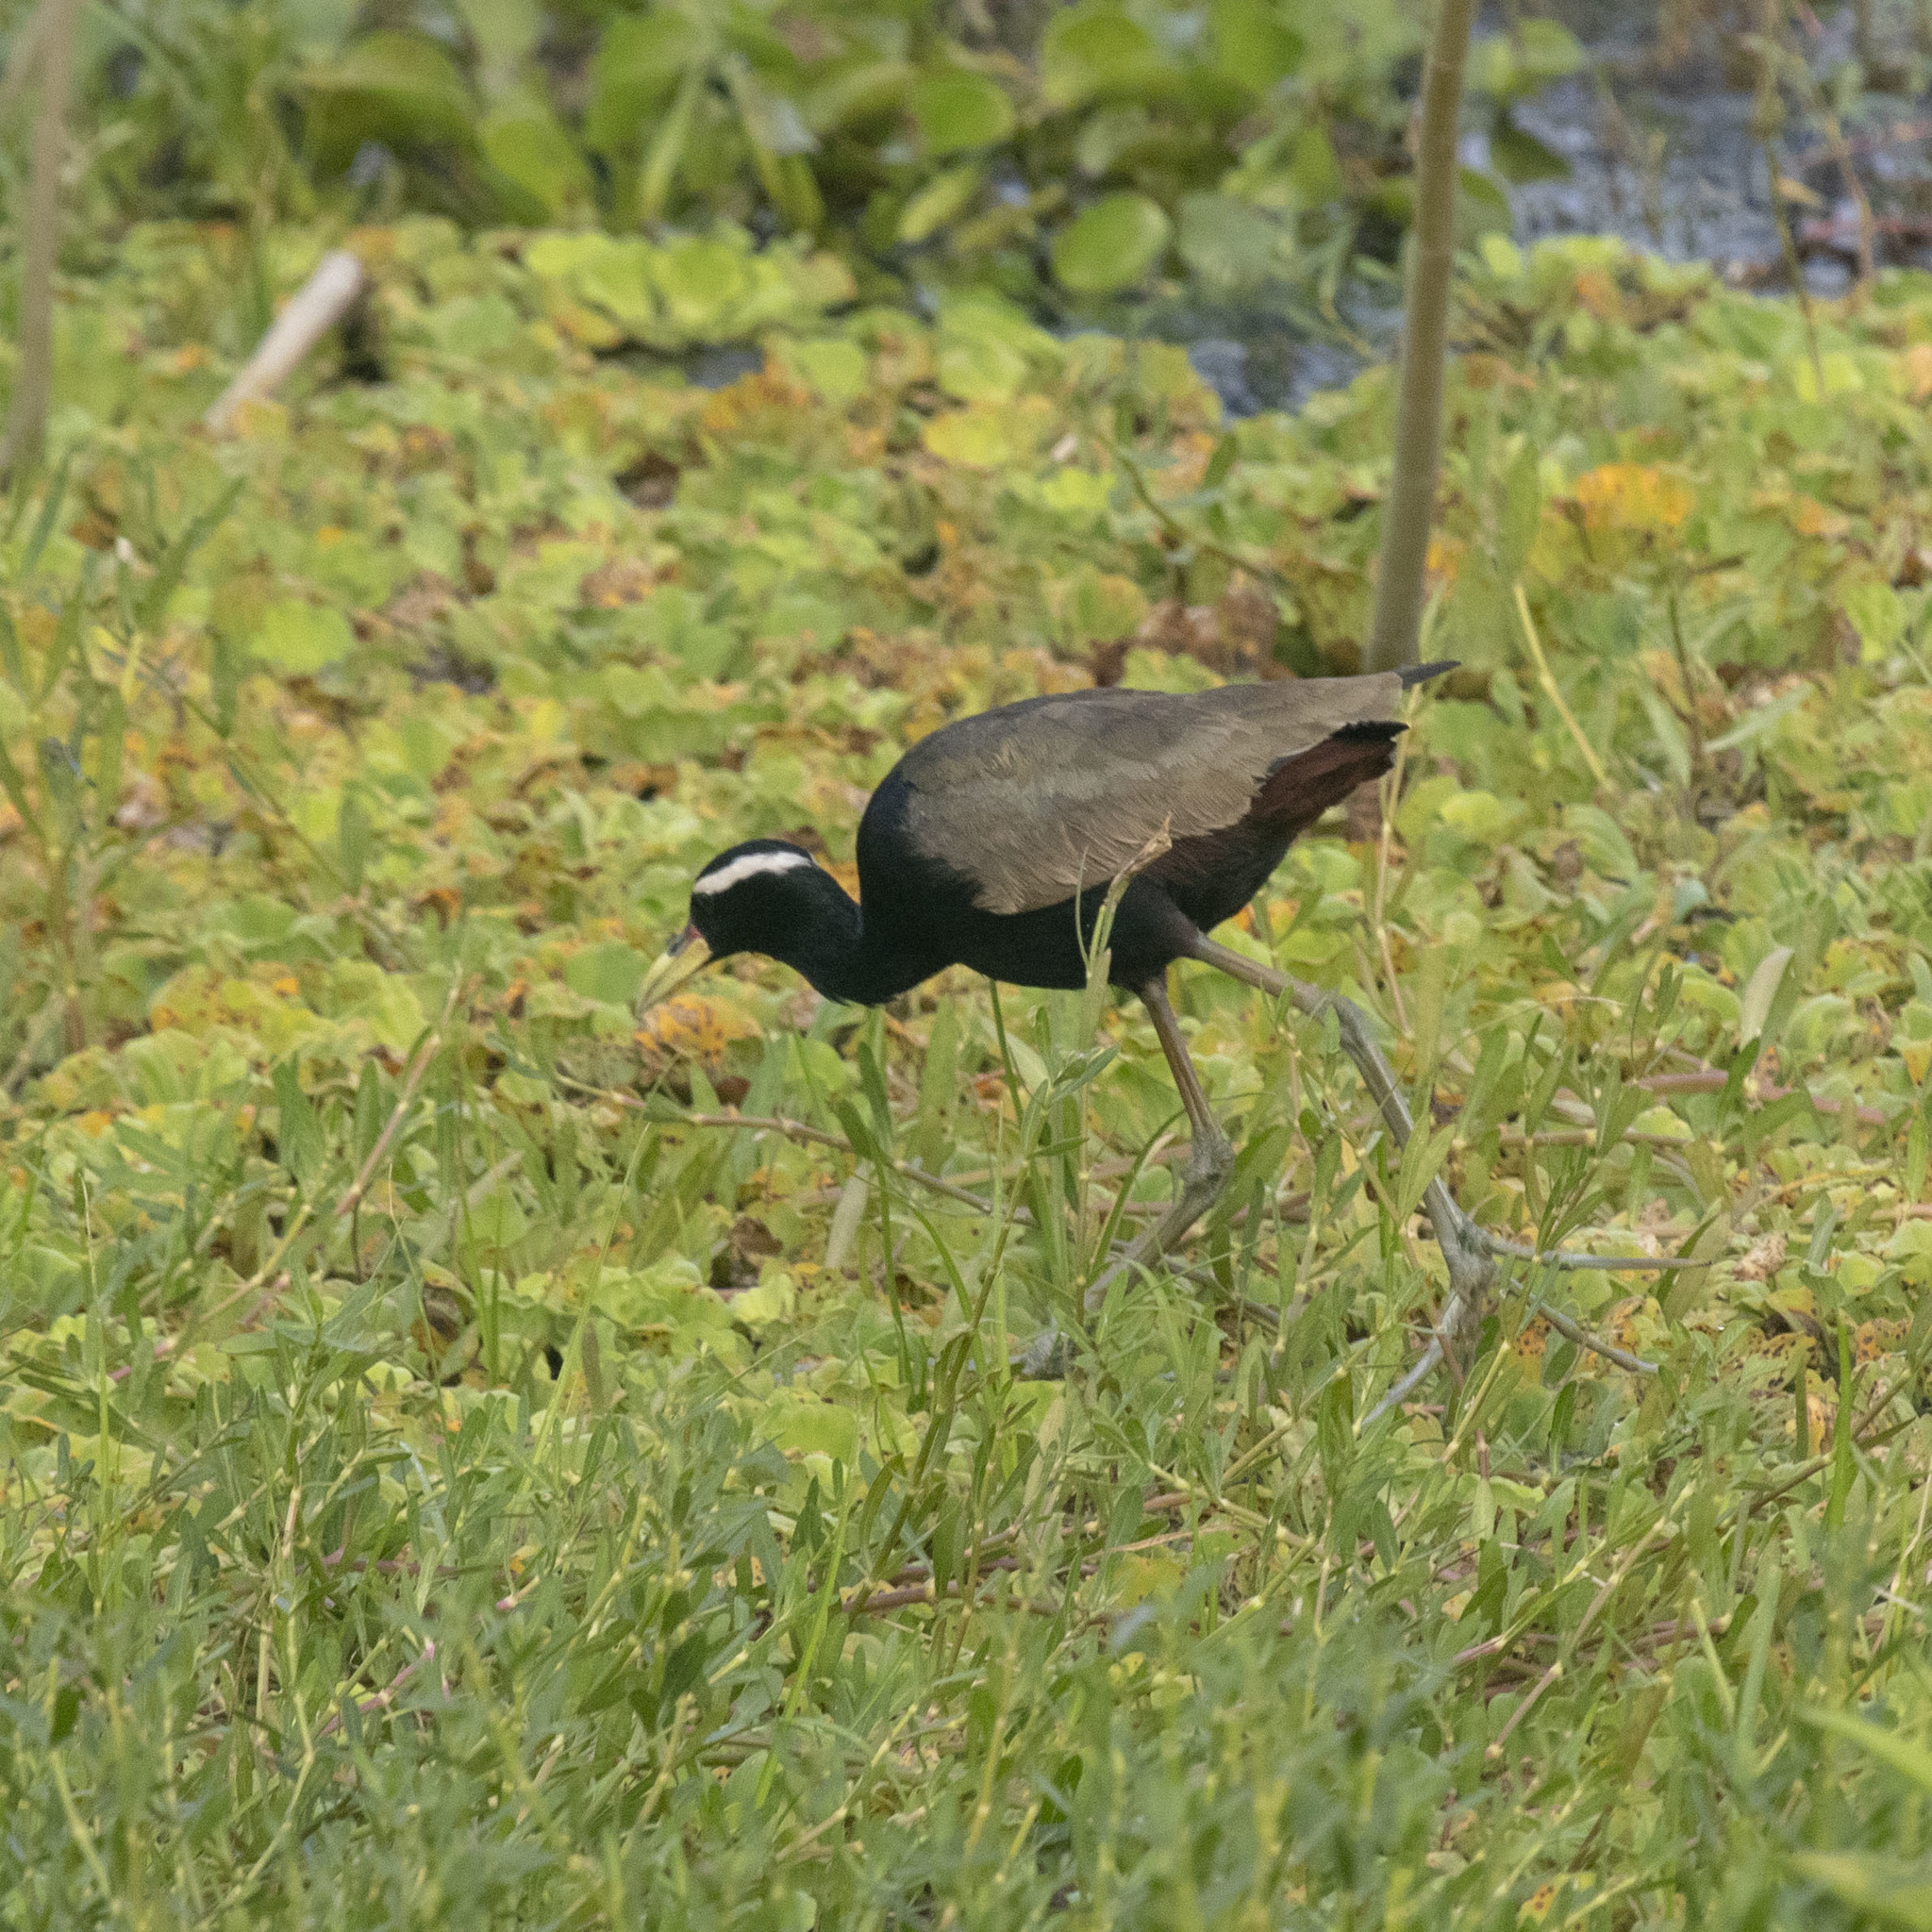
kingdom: Animalia
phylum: Chordata
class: Aves
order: Charadriiformes
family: Jacanidae
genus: Metopidius
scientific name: Metopidius indicus
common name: Bronze-winged jacana
